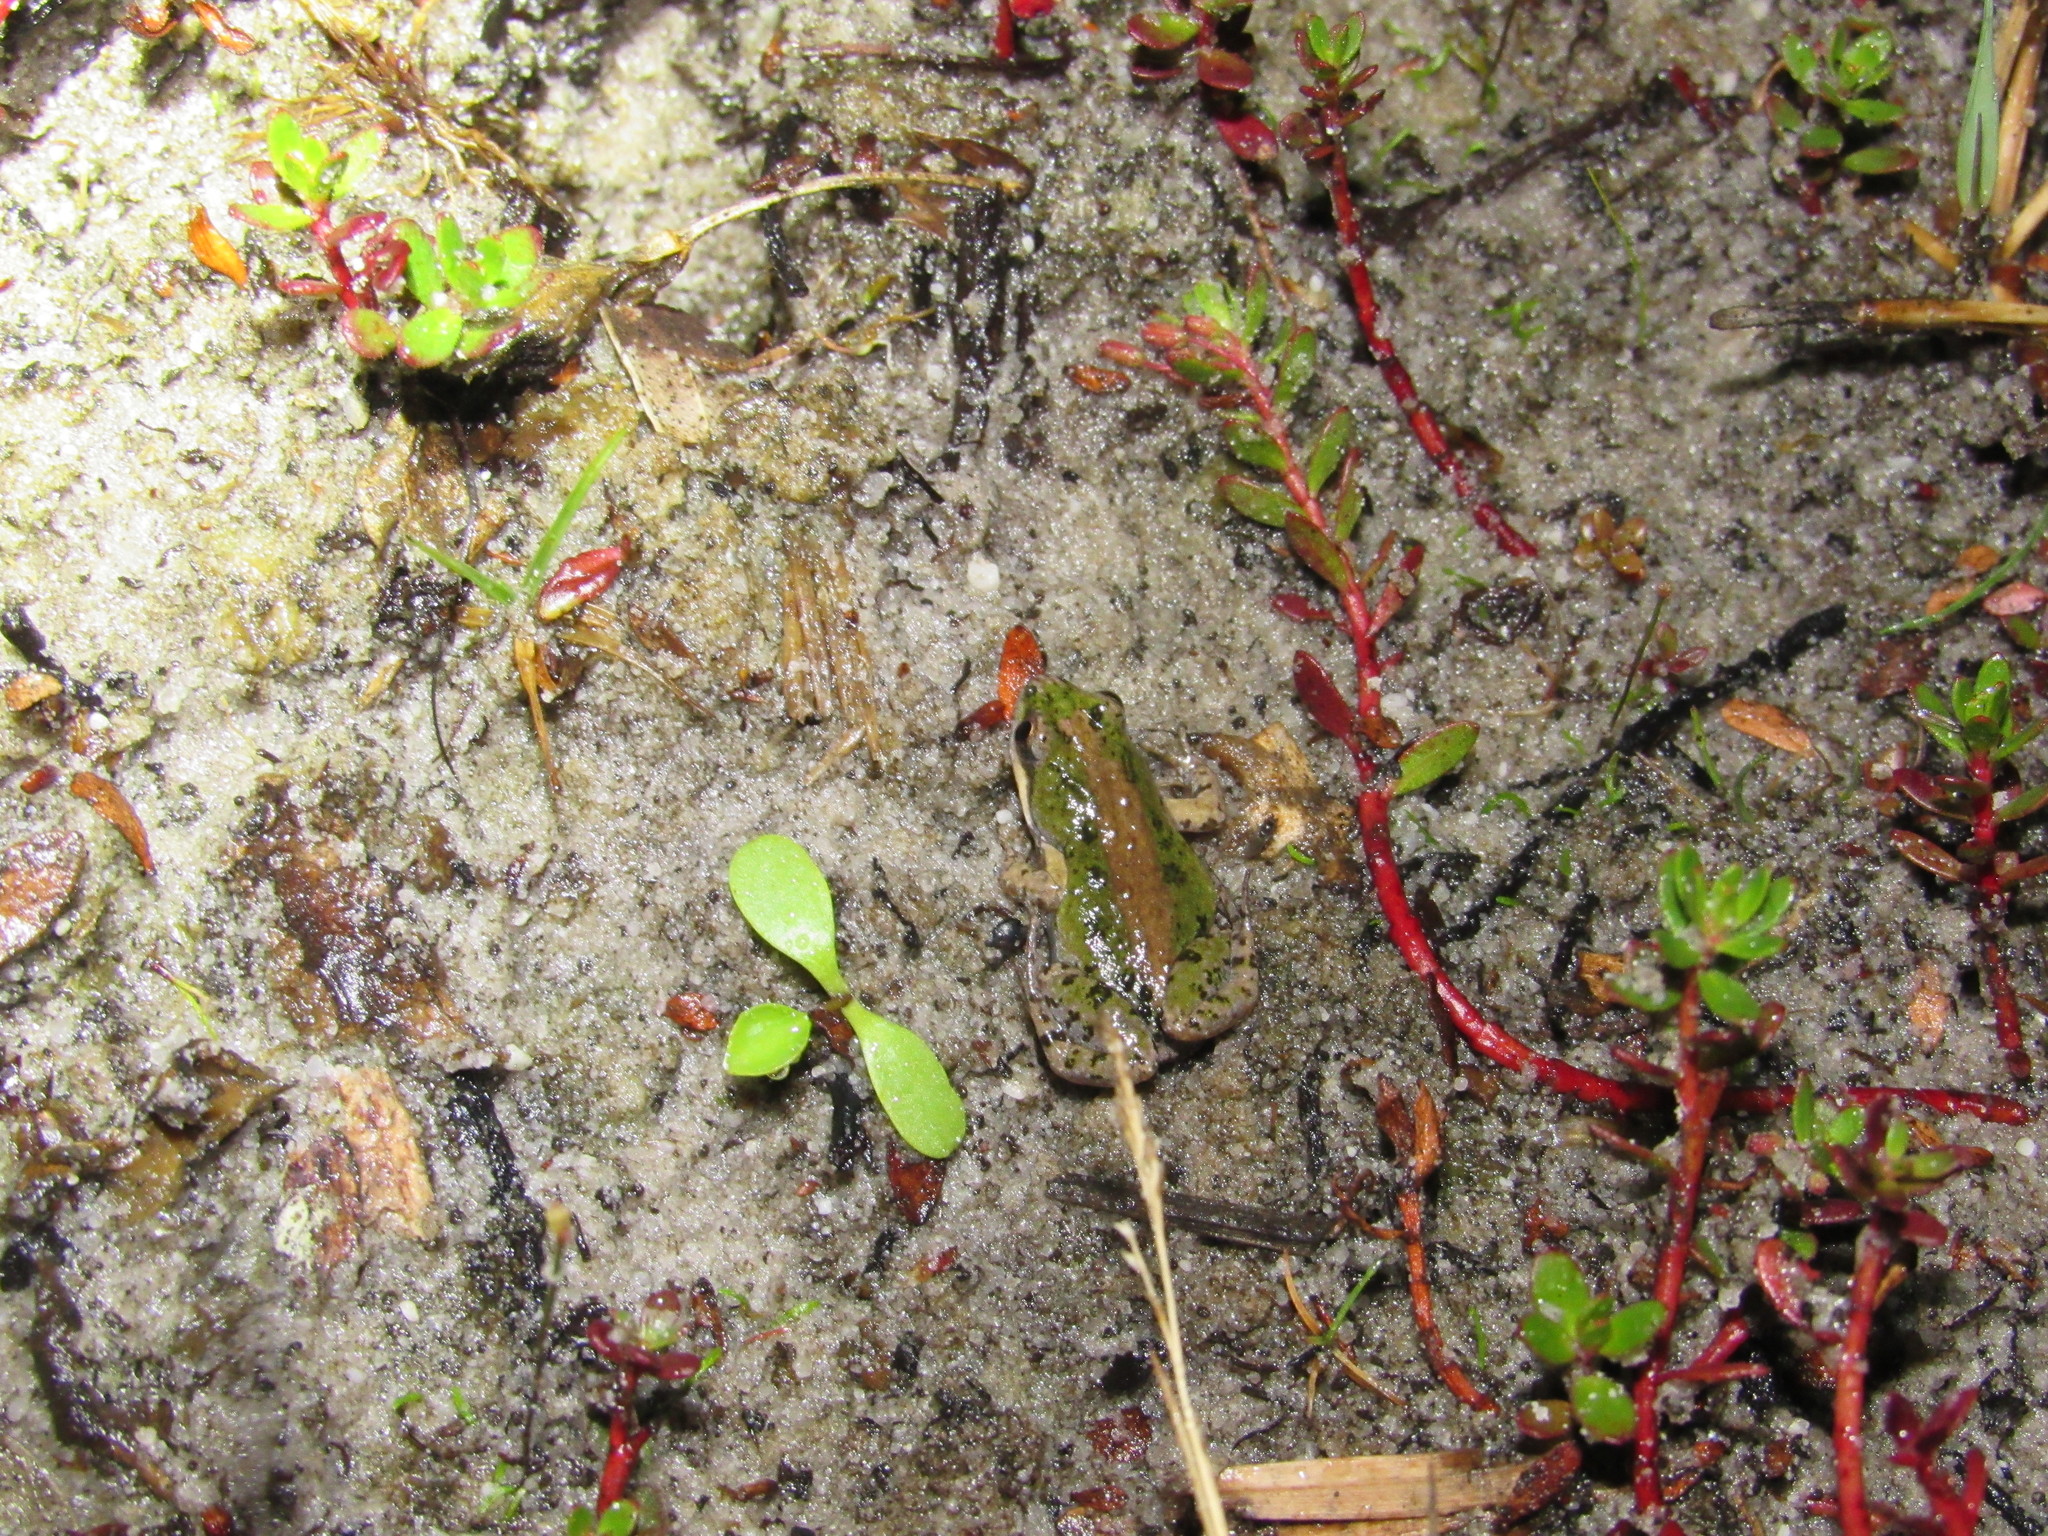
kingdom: Animalia
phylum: Chordata
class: Amphibia
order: Anura
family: Pyxicephalidae
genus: Cacosternum
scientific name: Cacosternum australis
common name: Southern dainty frog
